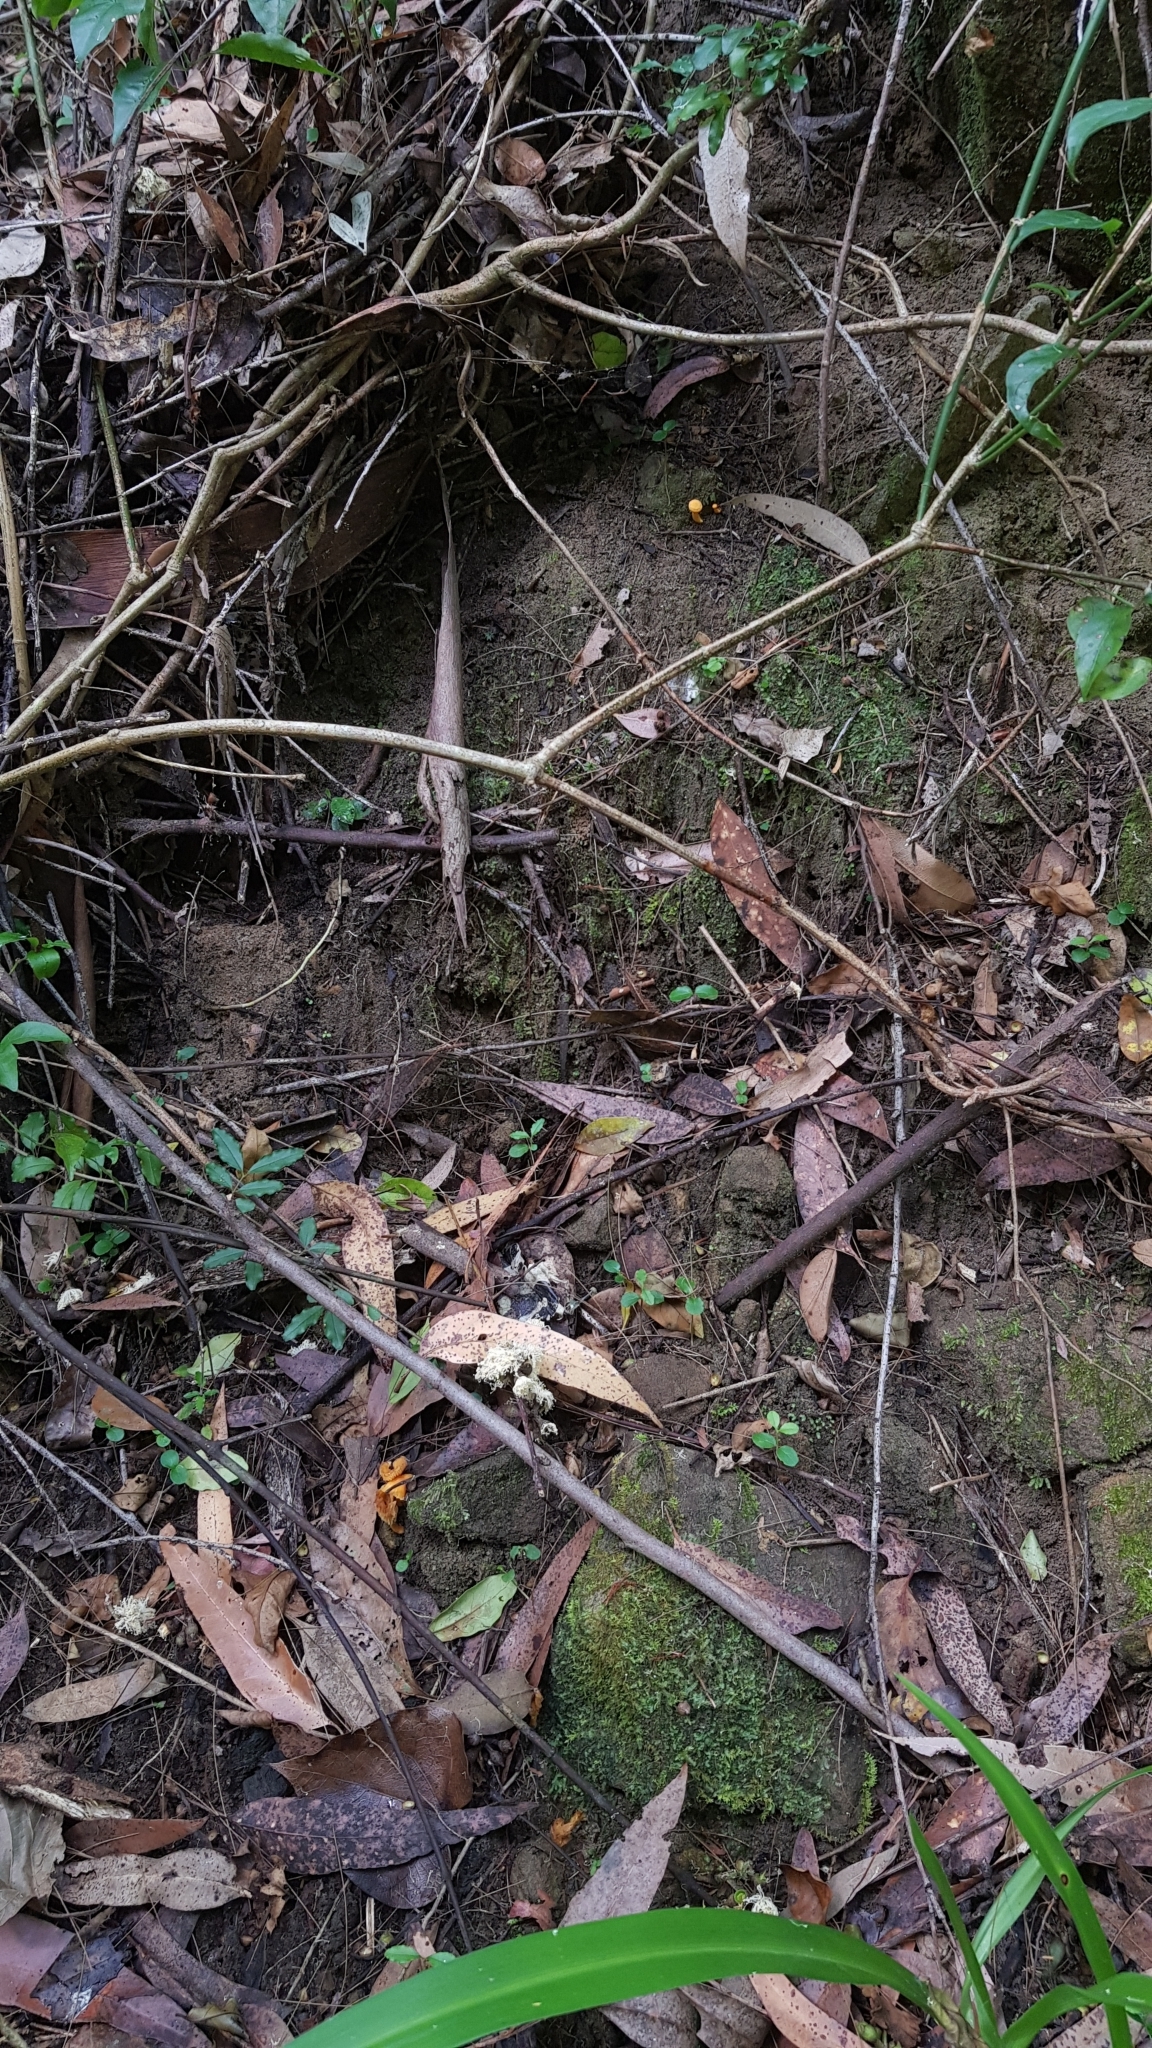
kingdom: Fungi
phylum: Basidiomycota
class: Agaricomycetes
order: Cantharellales
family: Hydnaceae
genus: Cantharellus
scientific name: Cantharellus
